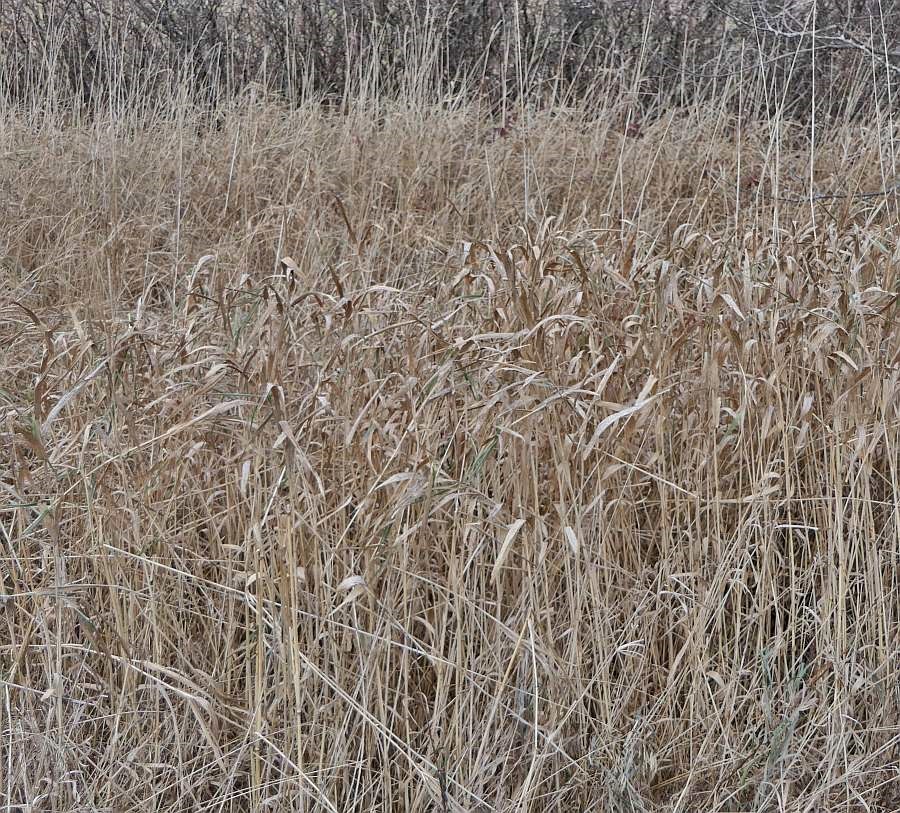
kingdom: Plantae
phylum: Tracheophyta
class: Liliopsida
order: Poales
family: Poaceae
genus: Phalaris
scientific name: Phalaris arundinacea
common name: Reed canary-grass
